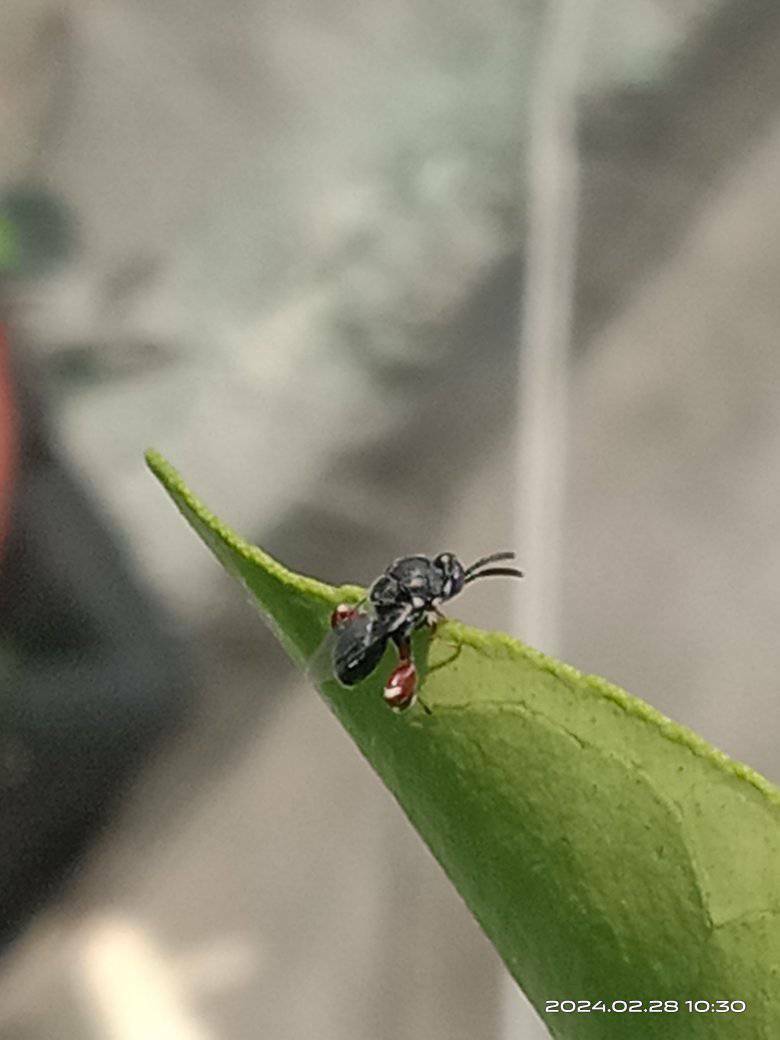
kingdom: Animalia
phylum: Arthropoda
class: Insecta
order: Hymenoptera
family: Chalcididae
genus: Brachymeria
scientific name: Brachymeria podagrica
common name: Chalcid wasp
